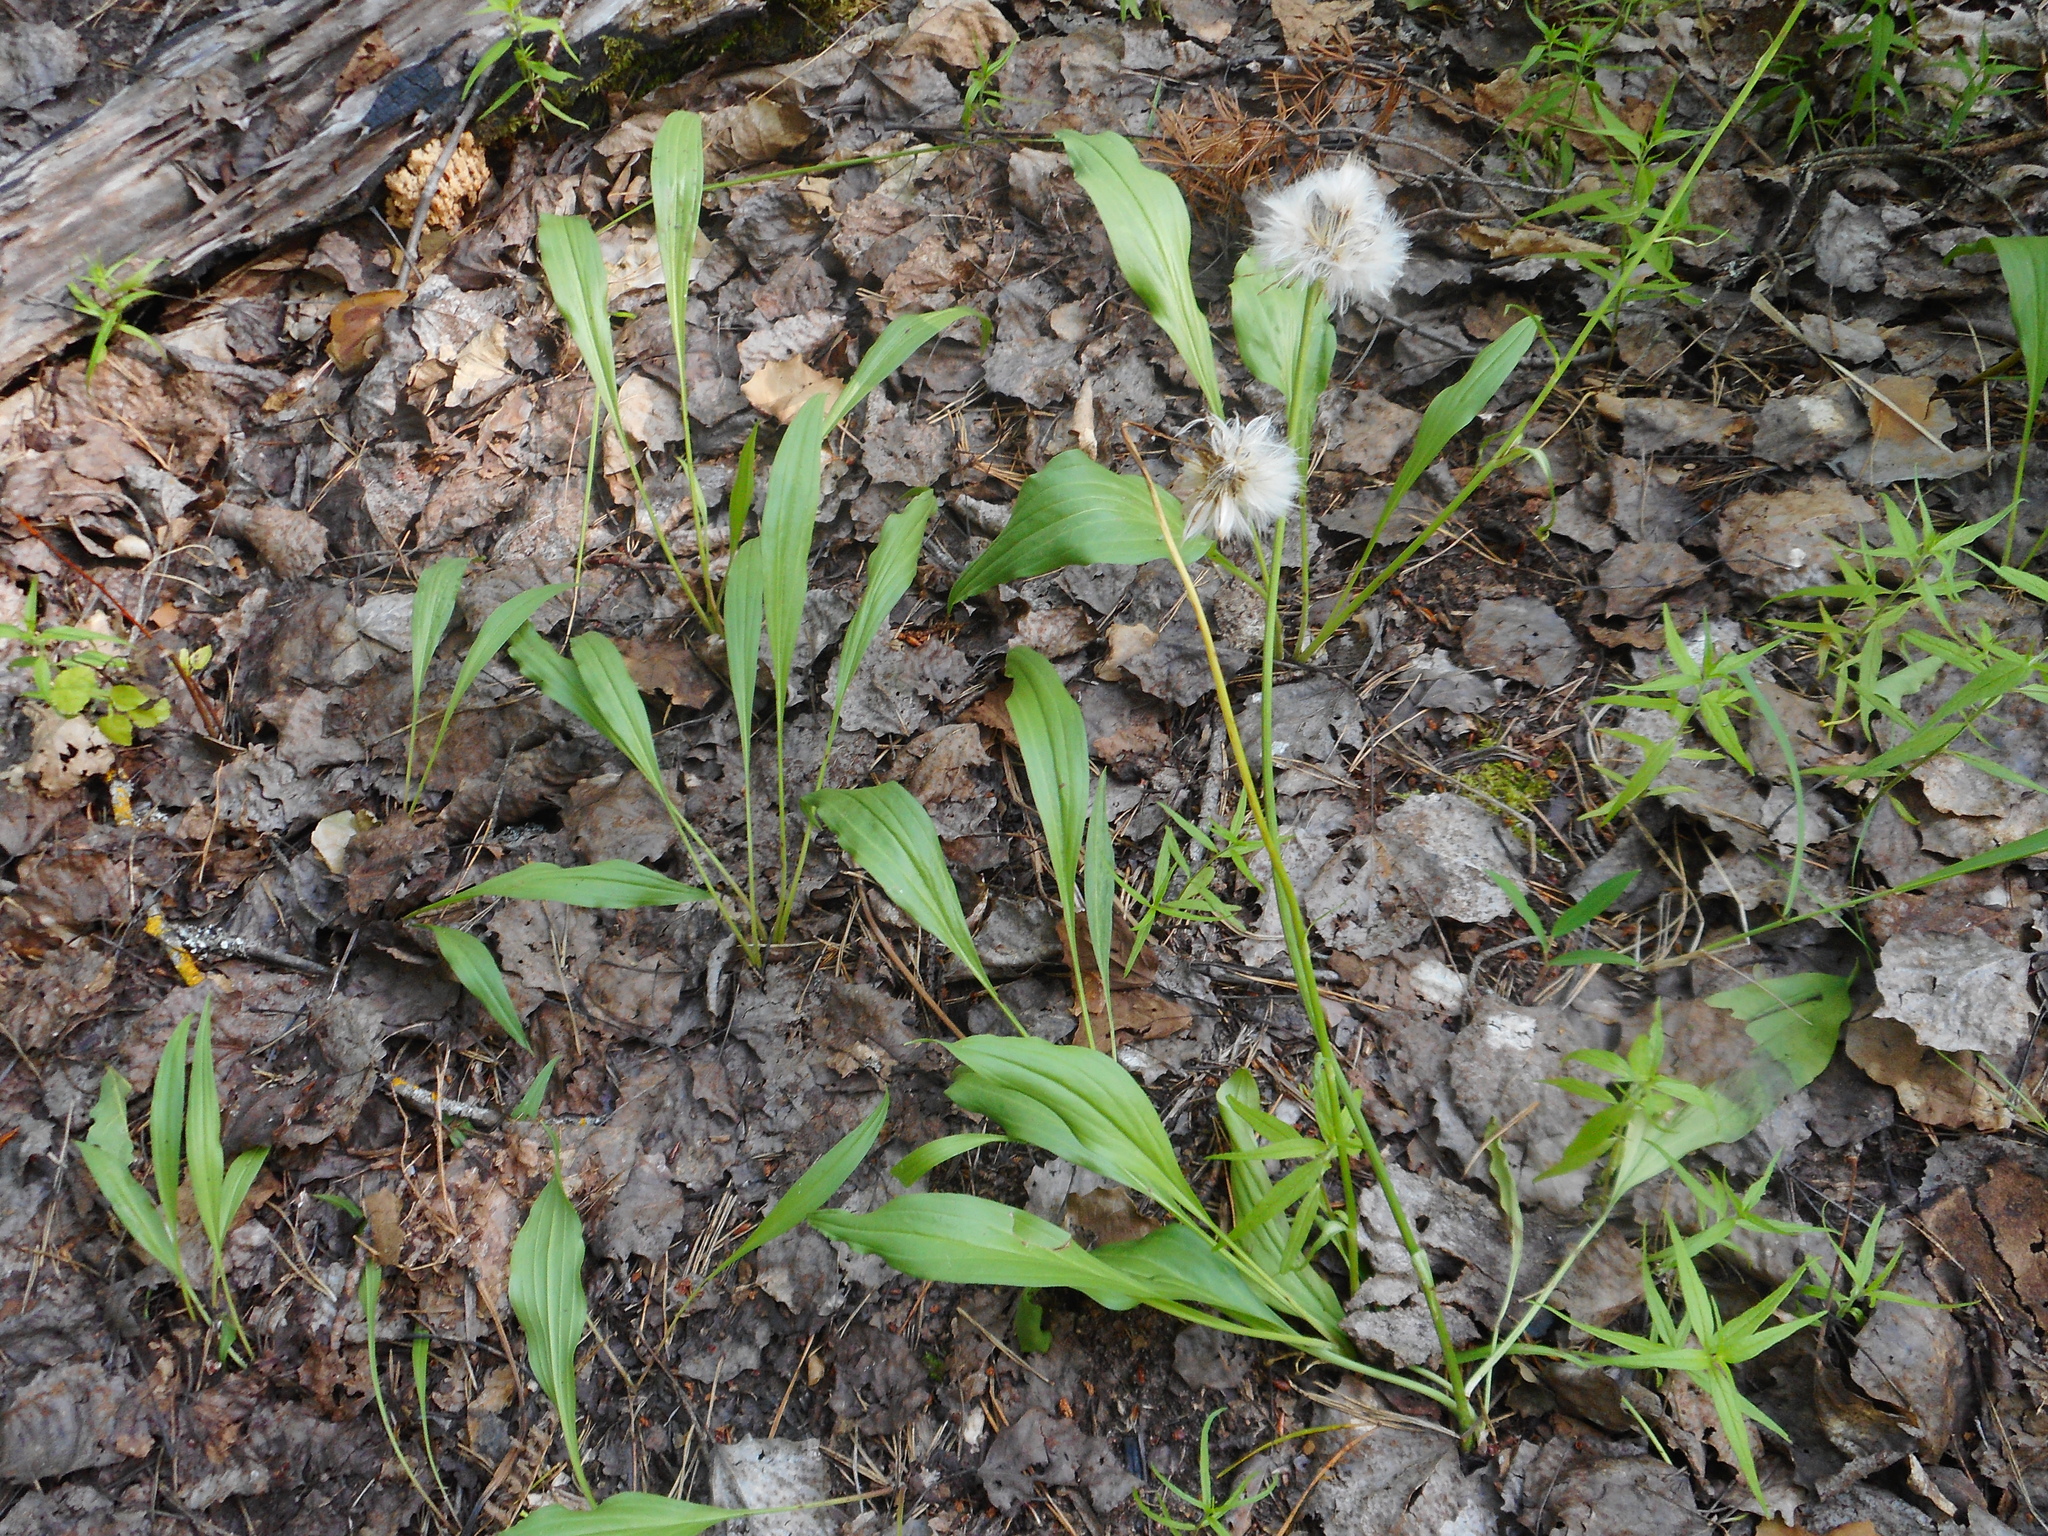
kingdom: Plantae
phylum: Tracheophyta
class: Magnoliopsida
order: Asterales
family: Asteraceae
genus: Scorzonera
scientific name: Scorzonera humilis
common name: Viper's-grass
